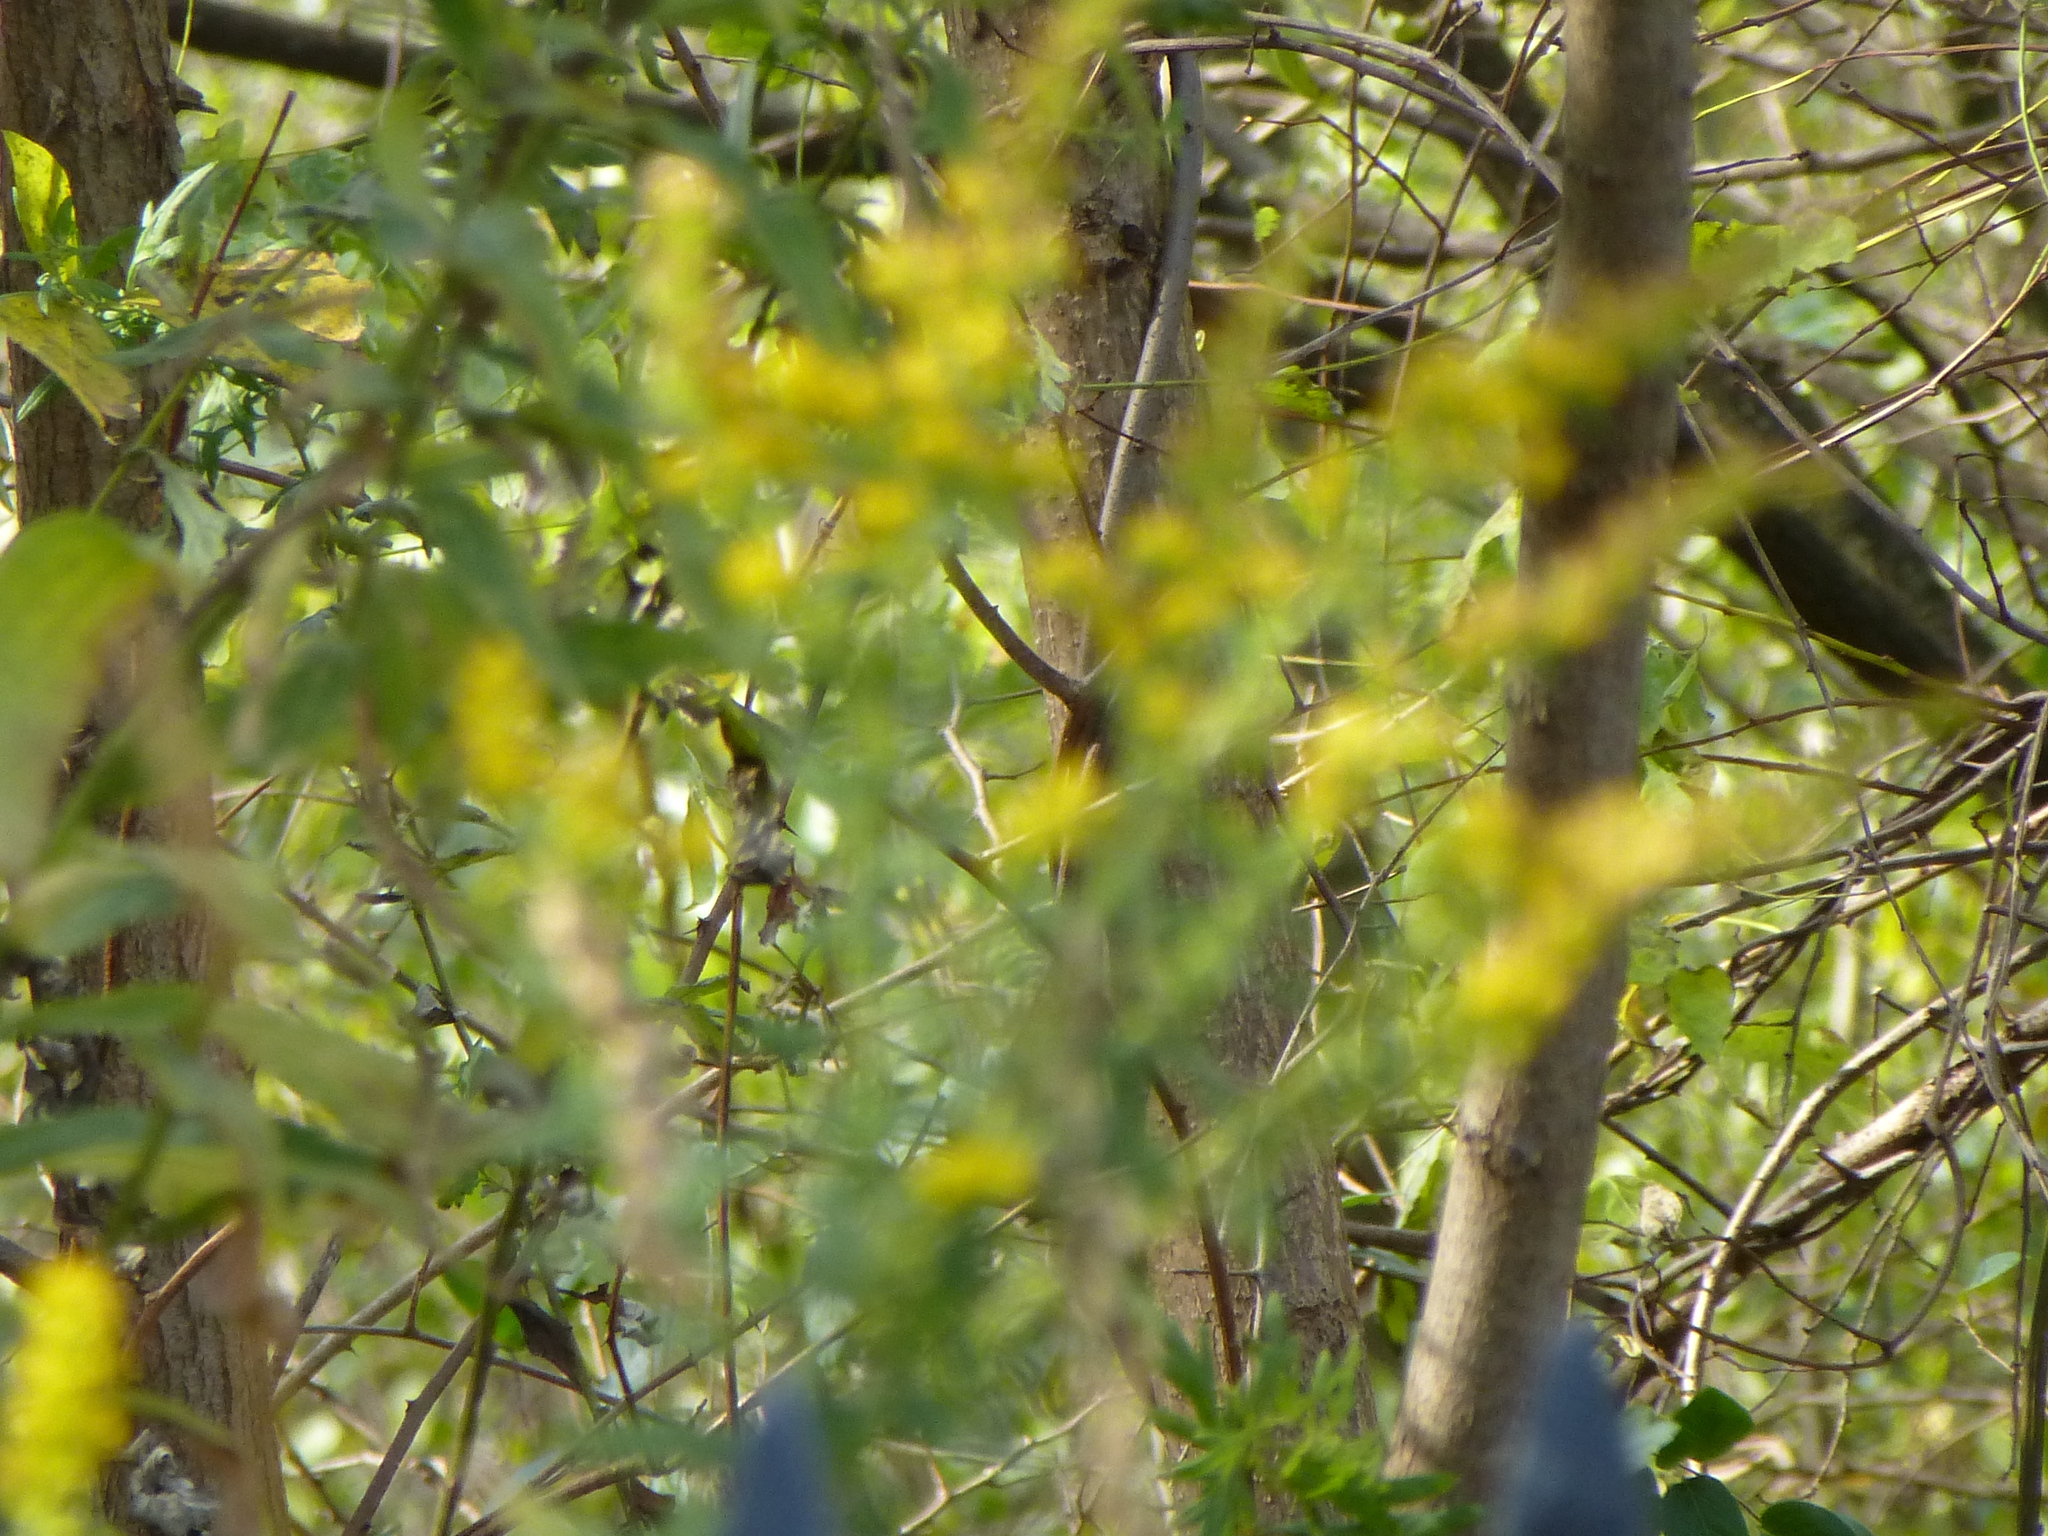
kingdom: Plantae
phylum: Tracheophyta
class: Magnoliopsida
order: Asterales
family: Asteraceae
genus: Solidago
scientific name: Solidago
